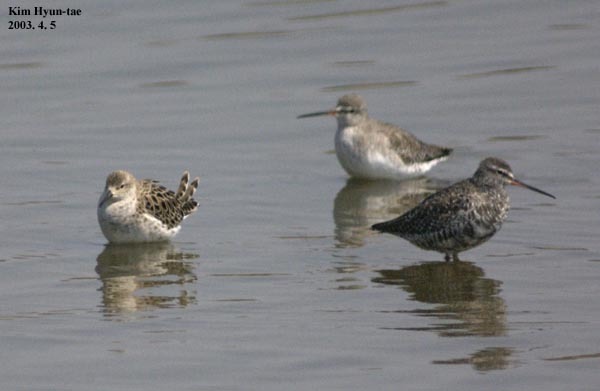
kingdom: Animalia
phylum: Chordata
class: Aves
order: Charadriiformes
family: Scolopacidae
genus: Calidris
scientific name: Calidris pugnax
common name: Ruff
